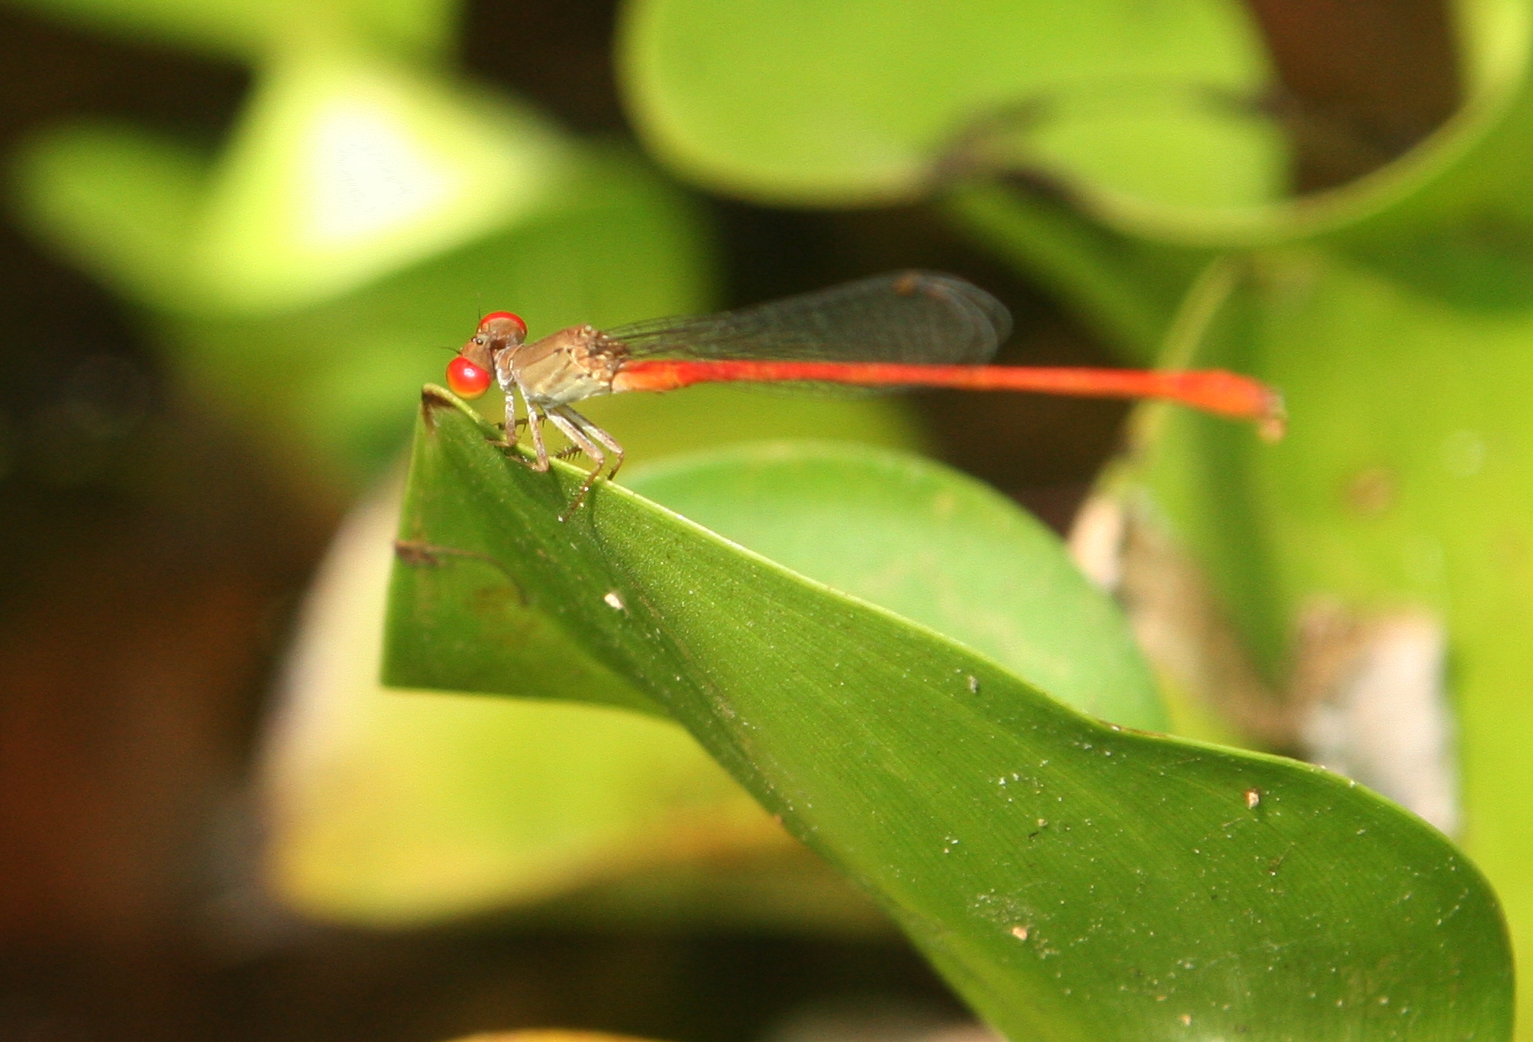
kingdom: Animalia
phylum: Arthropoda
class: Insecta
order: Odonata
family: Coenagrionidae
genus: Ceriagrion
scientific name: Ceriagrion praetermissum
